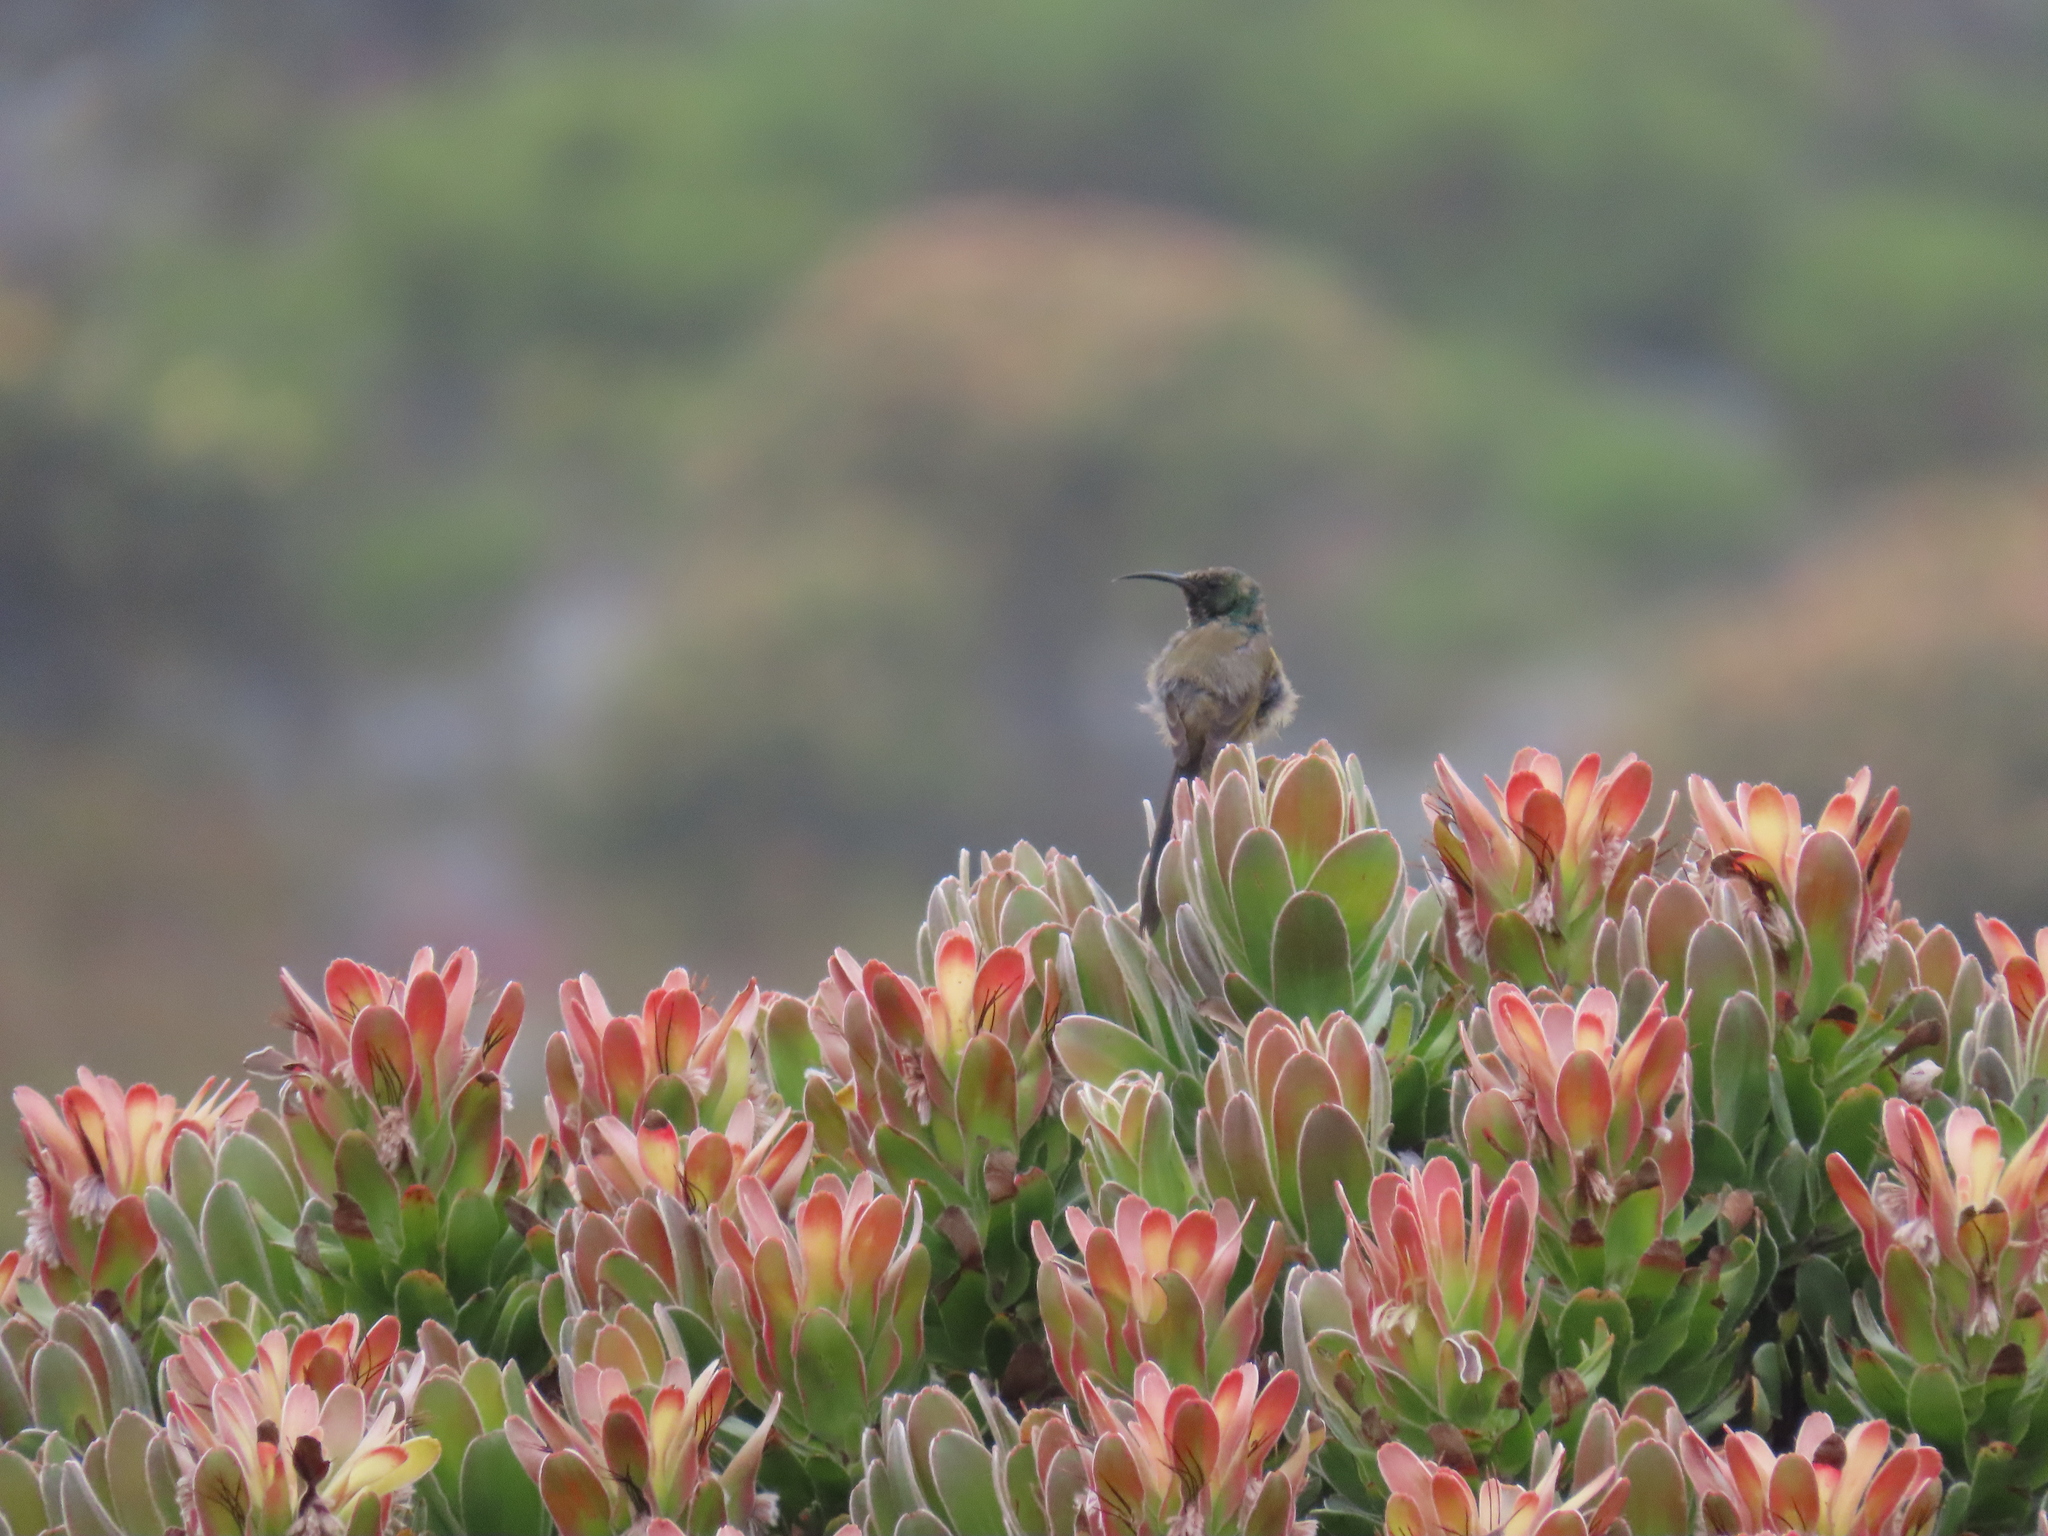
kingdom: Plantae
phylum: Tracheophyta
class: Magnoliopsida
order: Proteales
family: Proteaceae
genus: Mimetes
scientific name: Mimetes fimbriifolius
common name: Fringed bottlebrush
